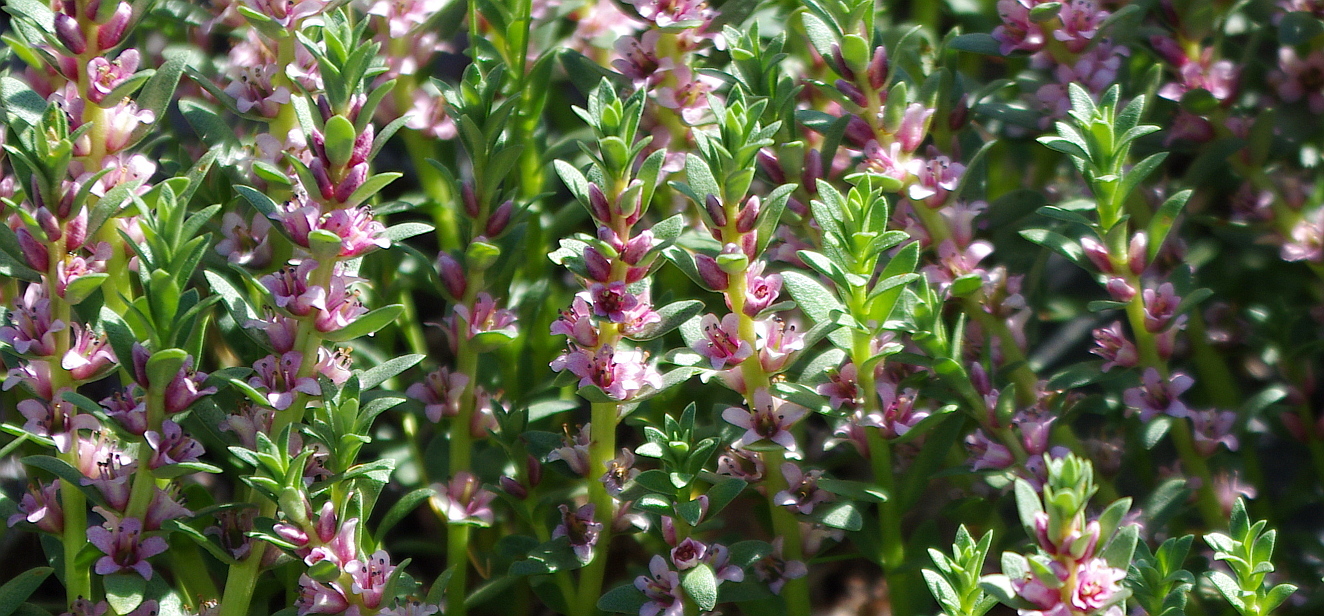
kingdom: Plantae
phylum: Tracheophyta
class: Magnoliopsida
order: Ericales
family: Primulaceae
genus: Lysimachia
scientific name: Lysimachia maritima
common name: Sea milkwort
